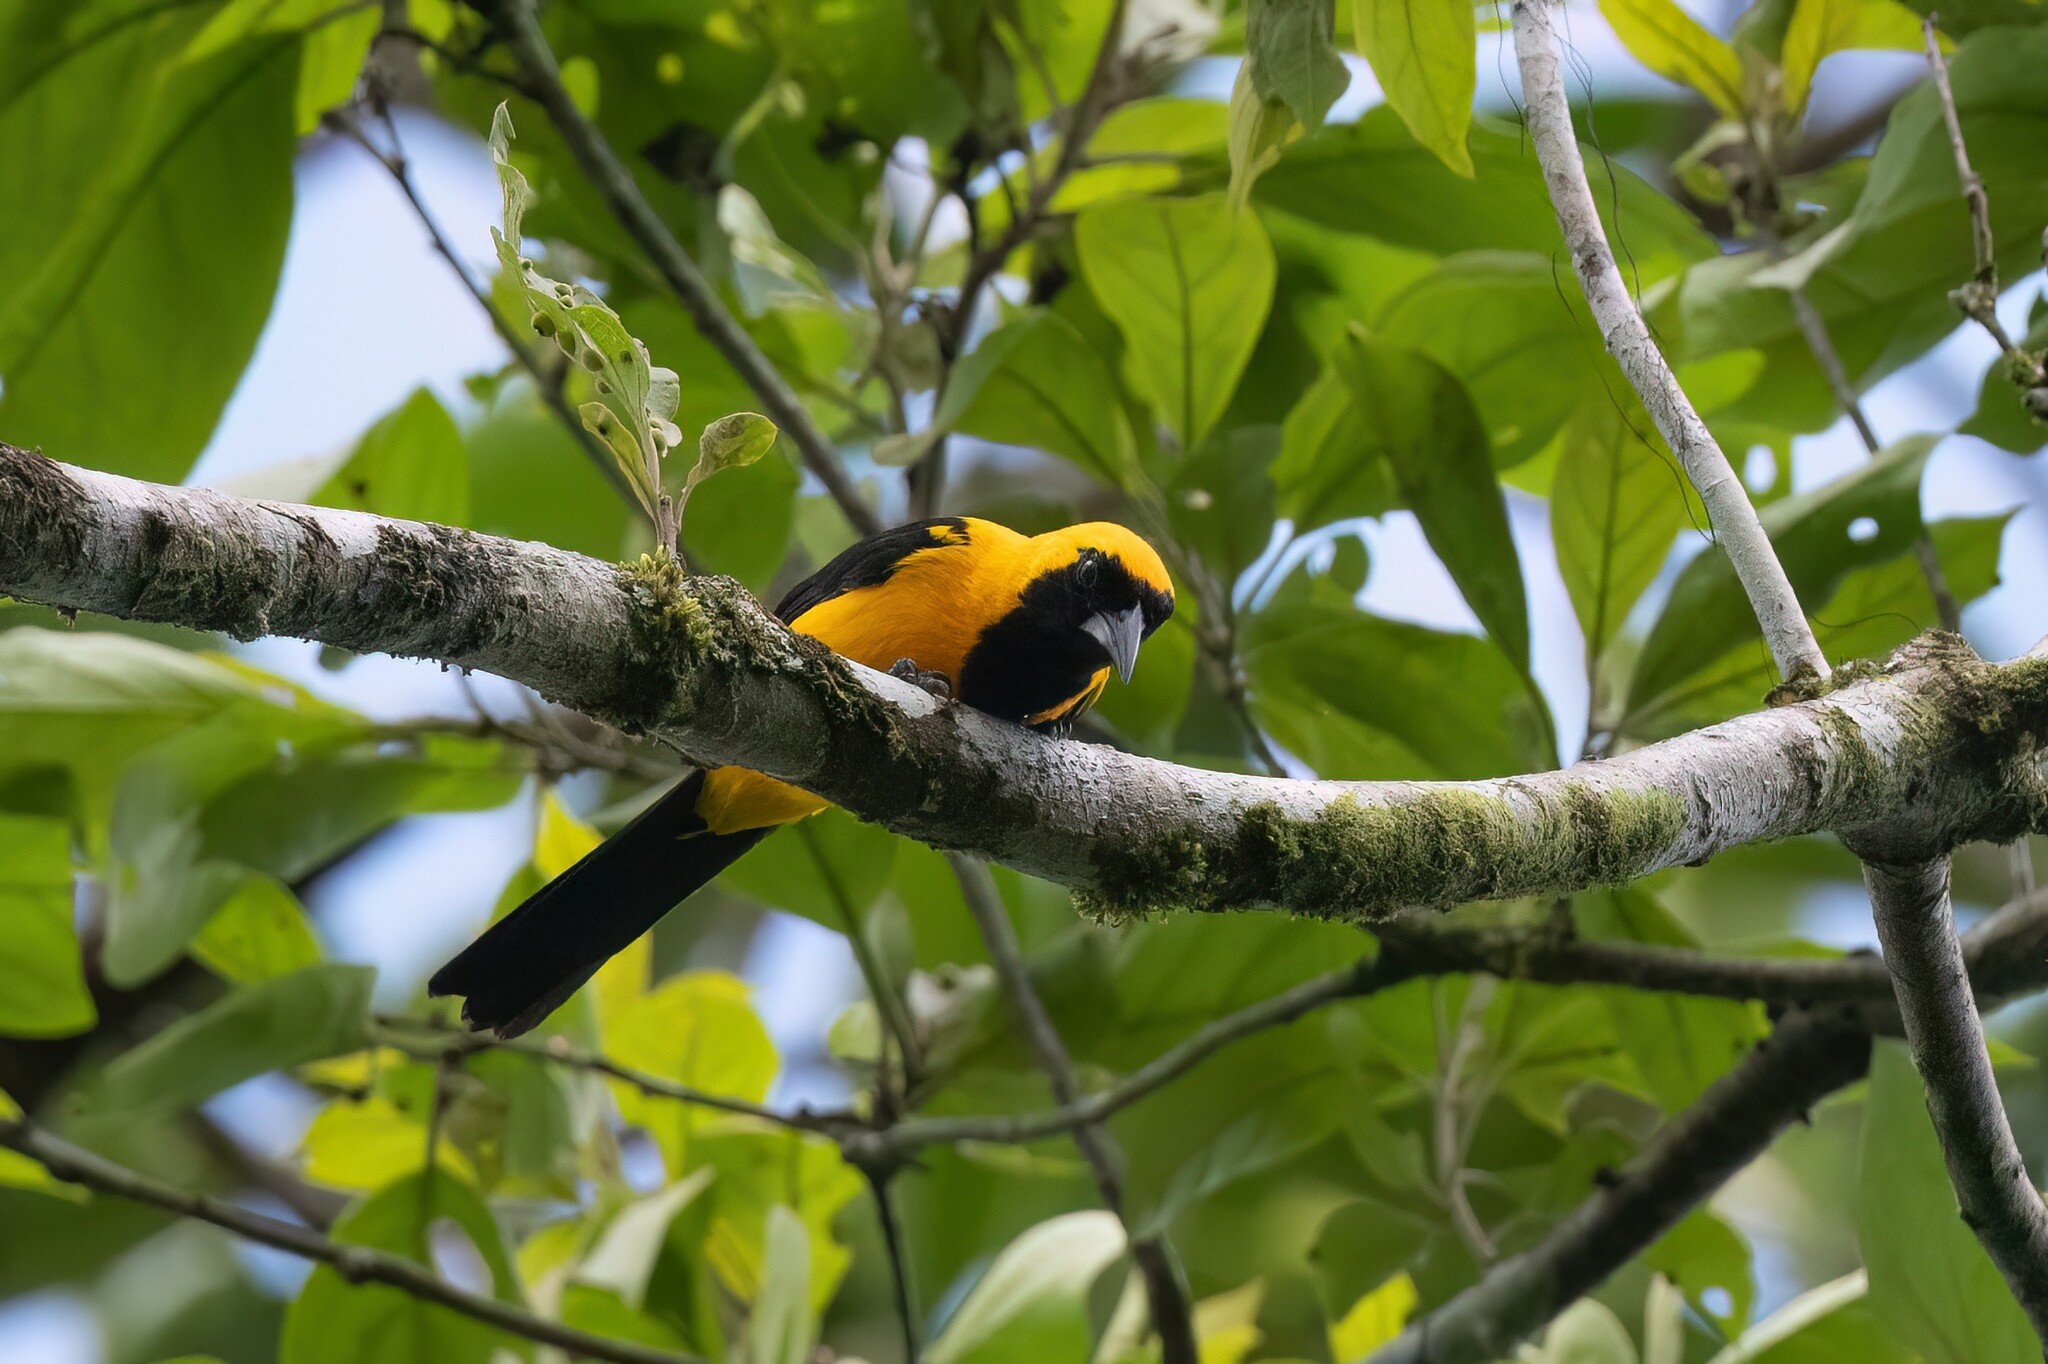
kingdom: Animalia
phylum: Chordata
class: Aves
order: Passeriformes
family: Icteridae
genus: Icterus
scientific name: Icterus chrysater
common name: Yellow-backed oriole
